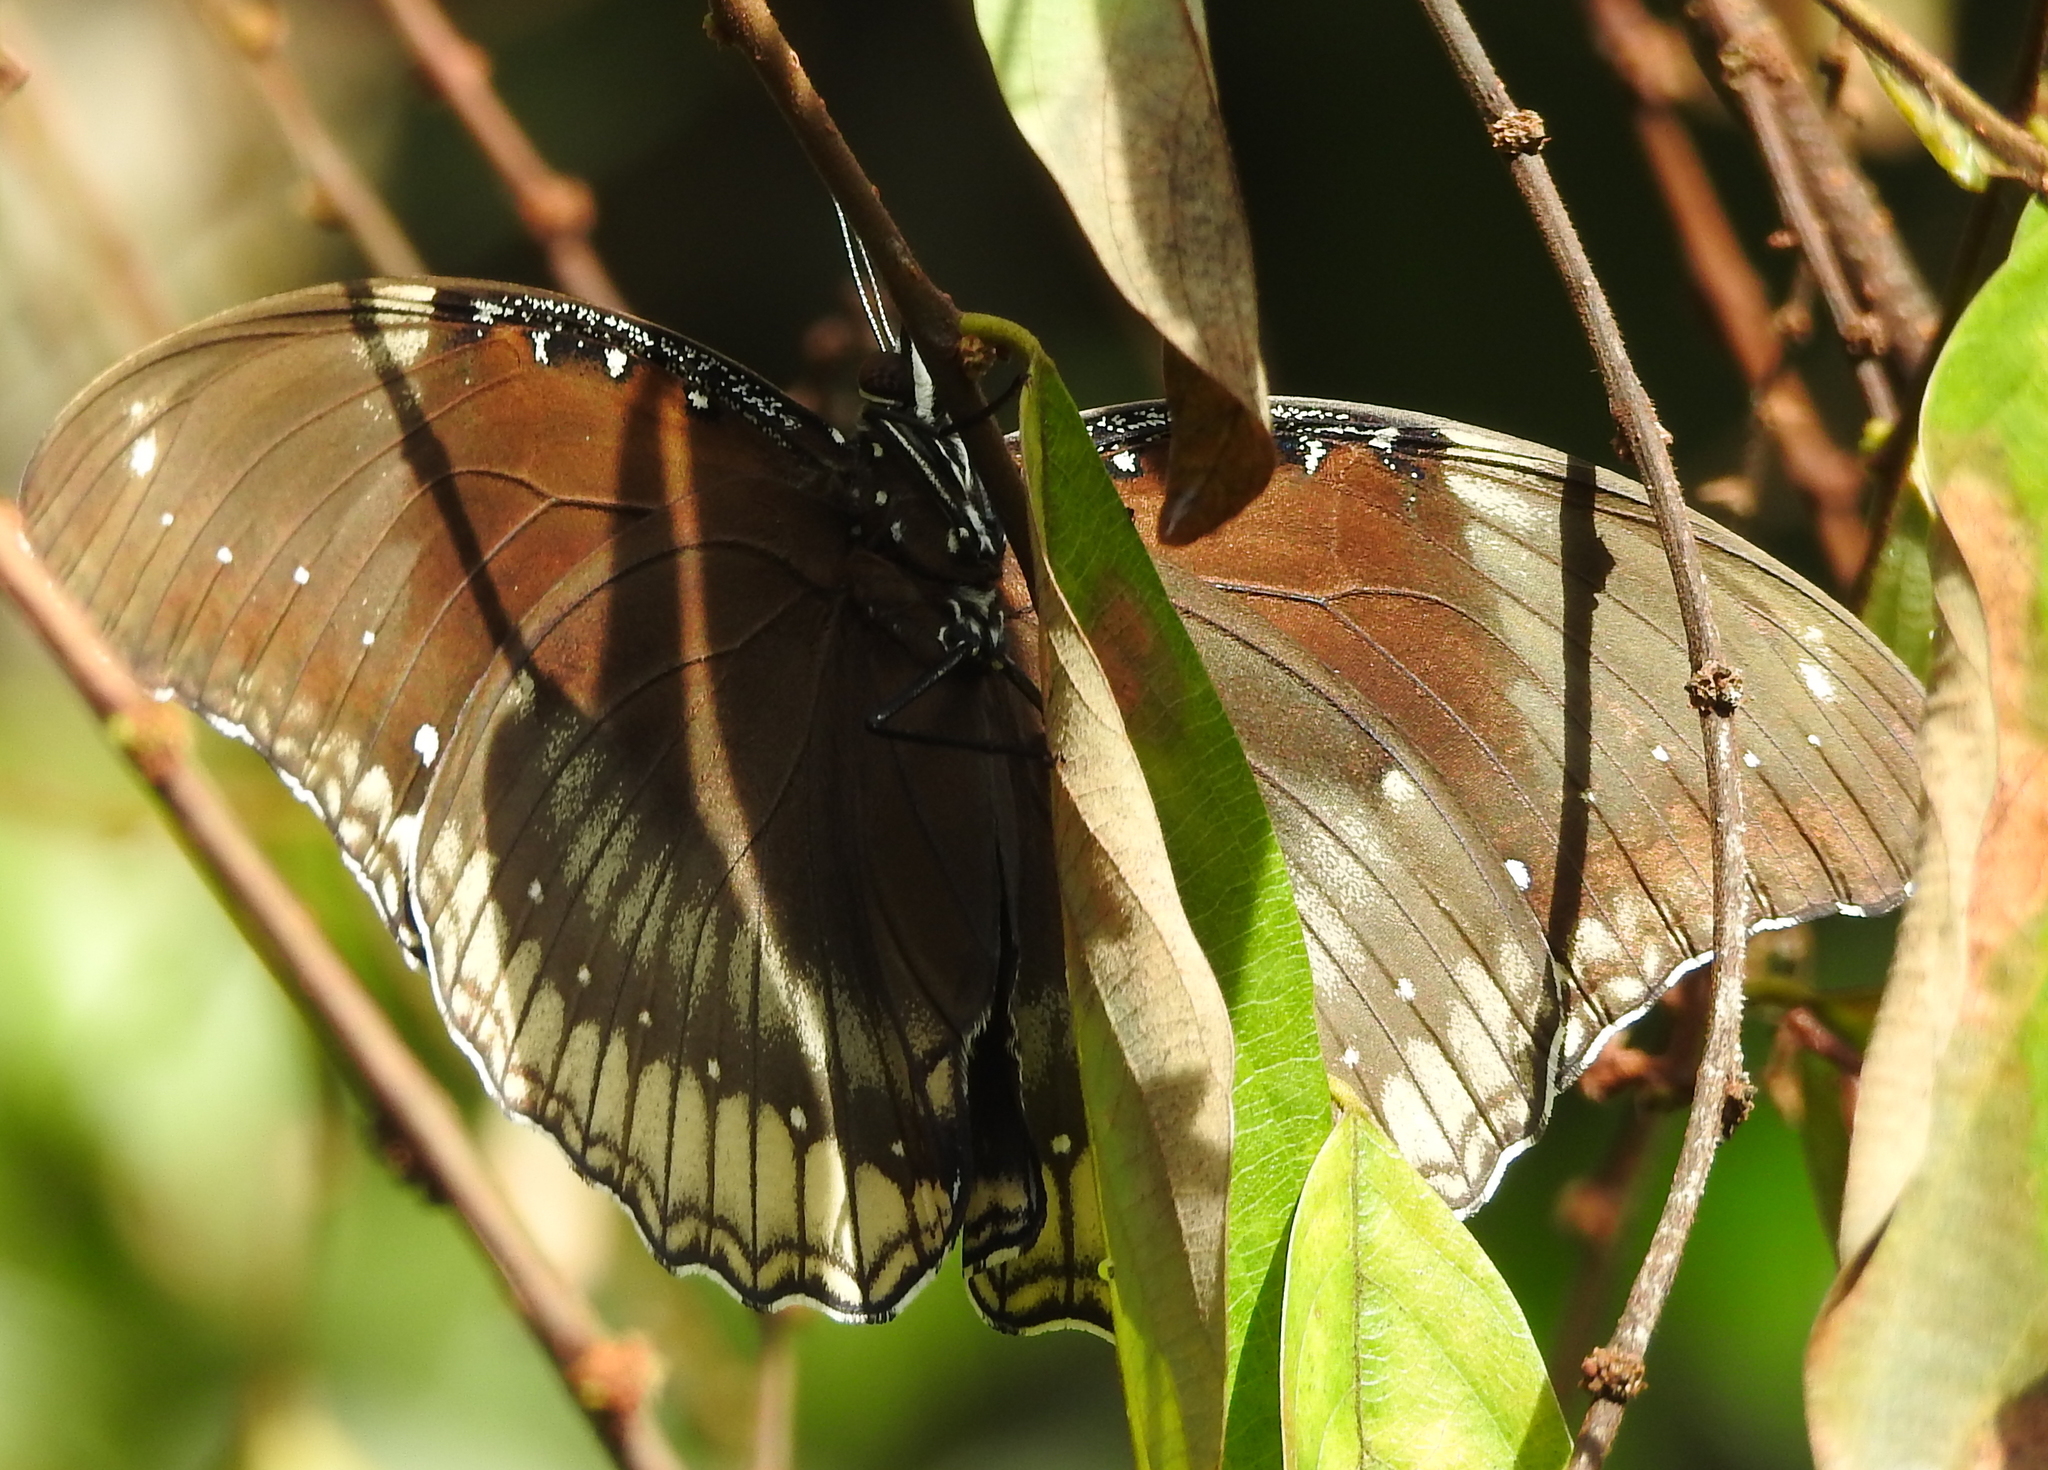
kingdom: Animalia
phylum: Arthropoda
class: Insecta
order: Lepidoptera
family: Nymphalidae
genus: Hypolimnas
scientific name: Hypolimnas bolina
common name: Great eggfly
